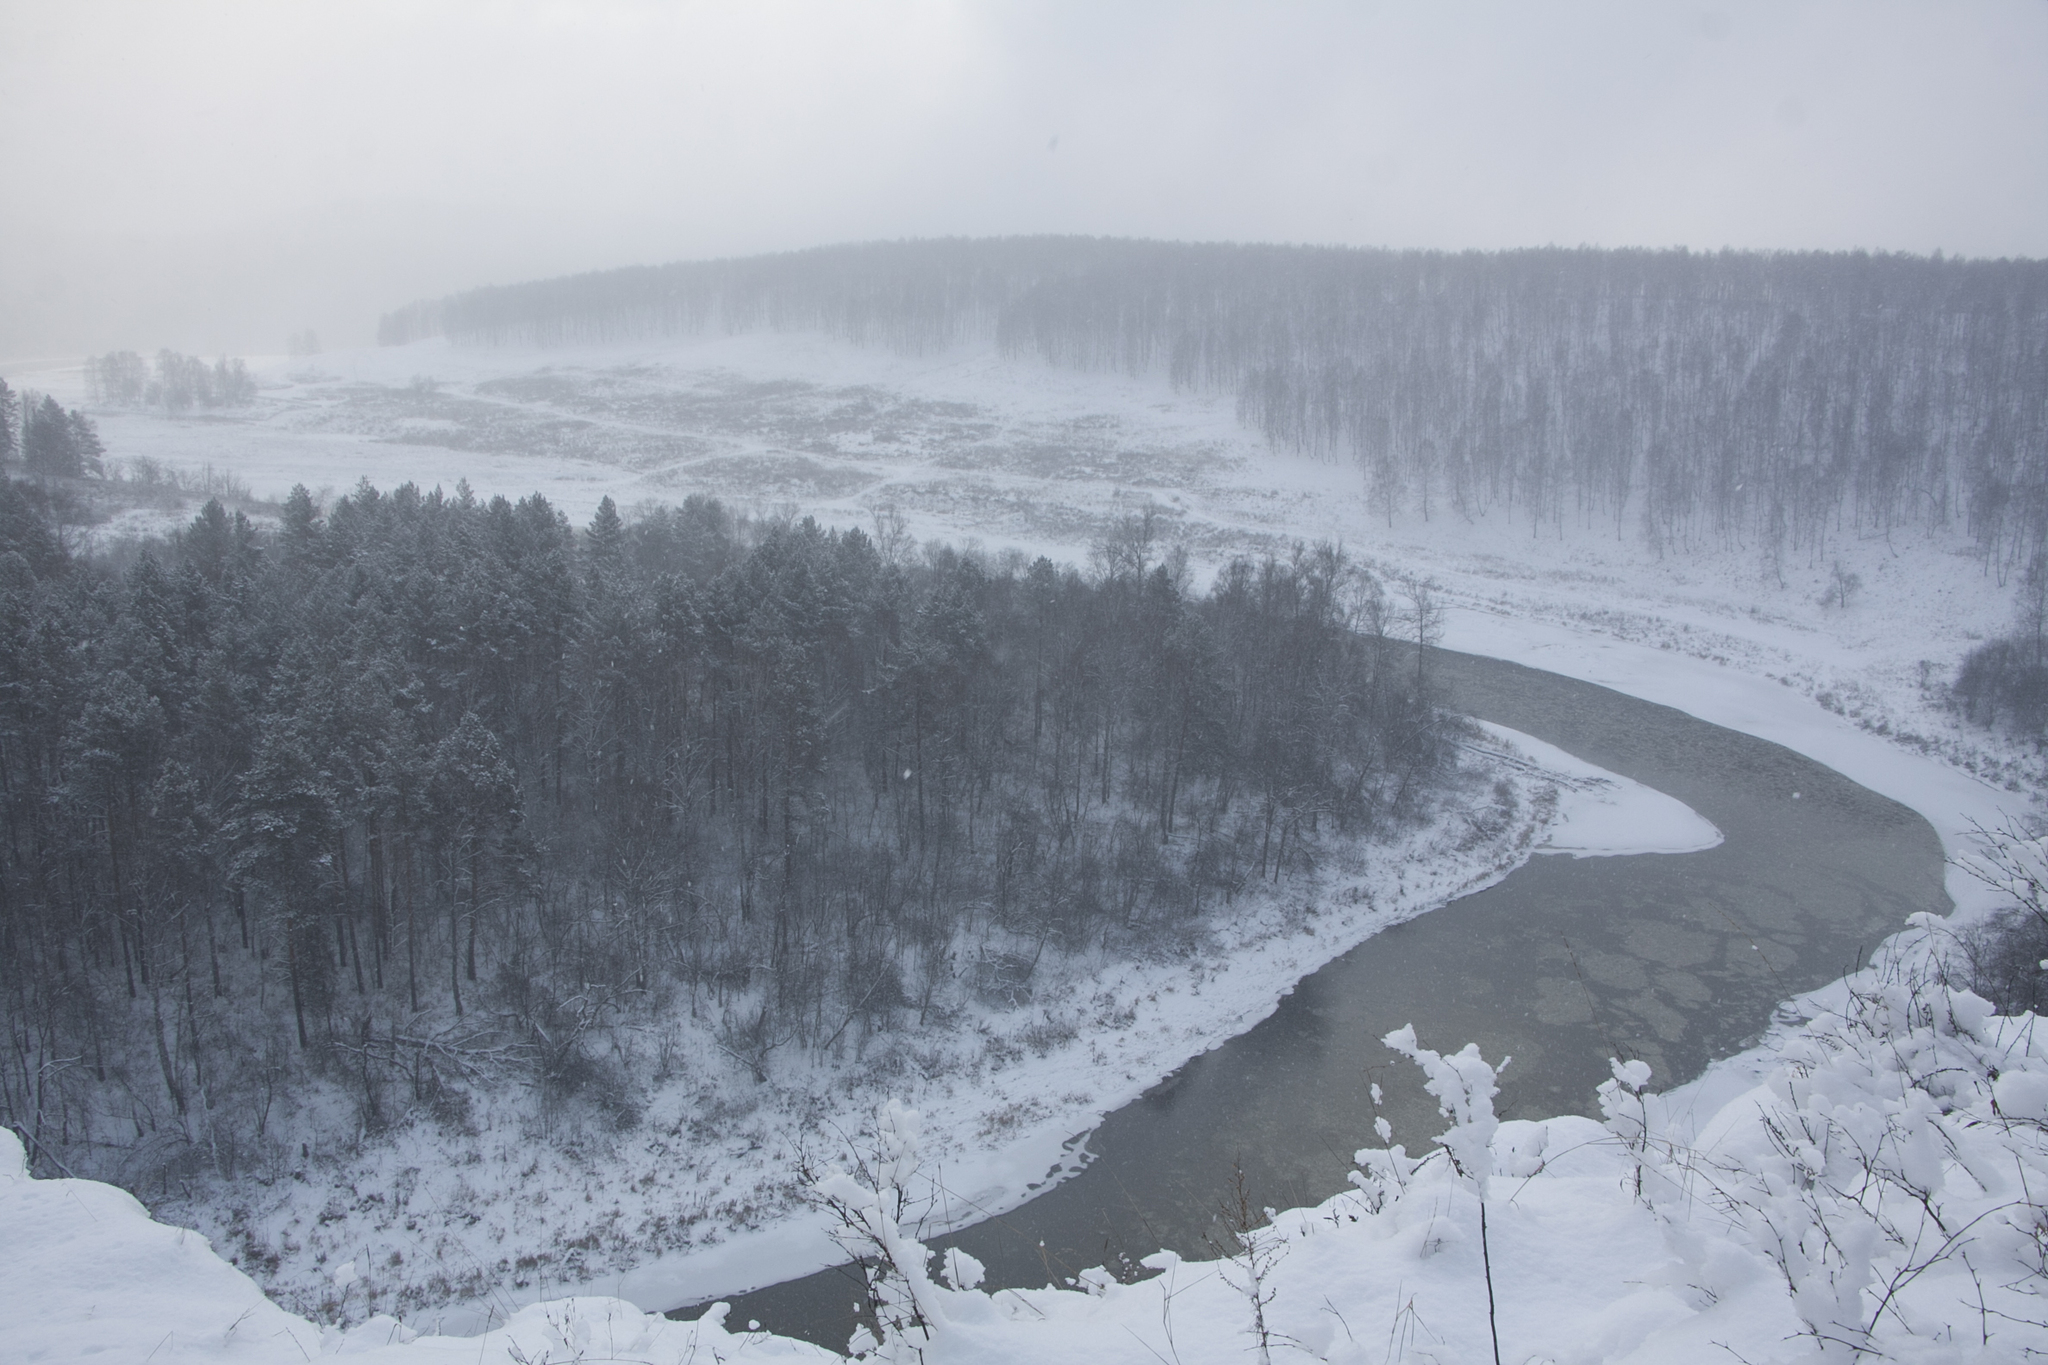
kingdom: Plantae
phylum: Tracheophyta
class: Pinopsida
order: Pinales
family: Pinaceae
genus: Pinus
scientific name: Pinus sylvestris
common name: Scots pine
